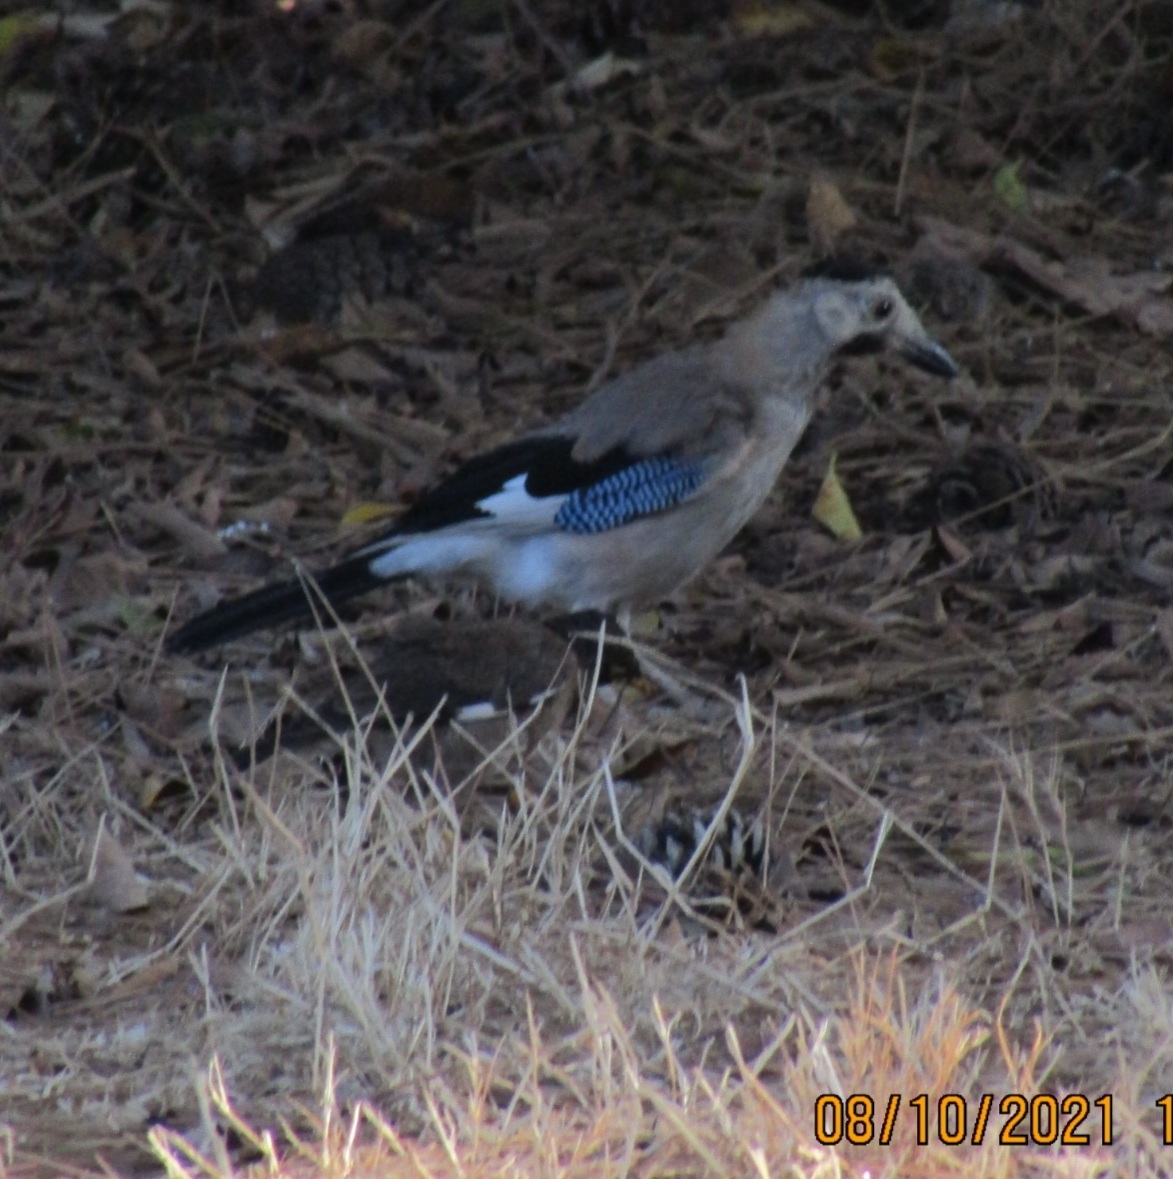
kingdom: Animalia
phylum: Chordata
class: Aves
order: Passeriformes
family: Corvidae
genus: Garrulus
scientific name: Garrulus glandarius
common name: Eurasian jay
